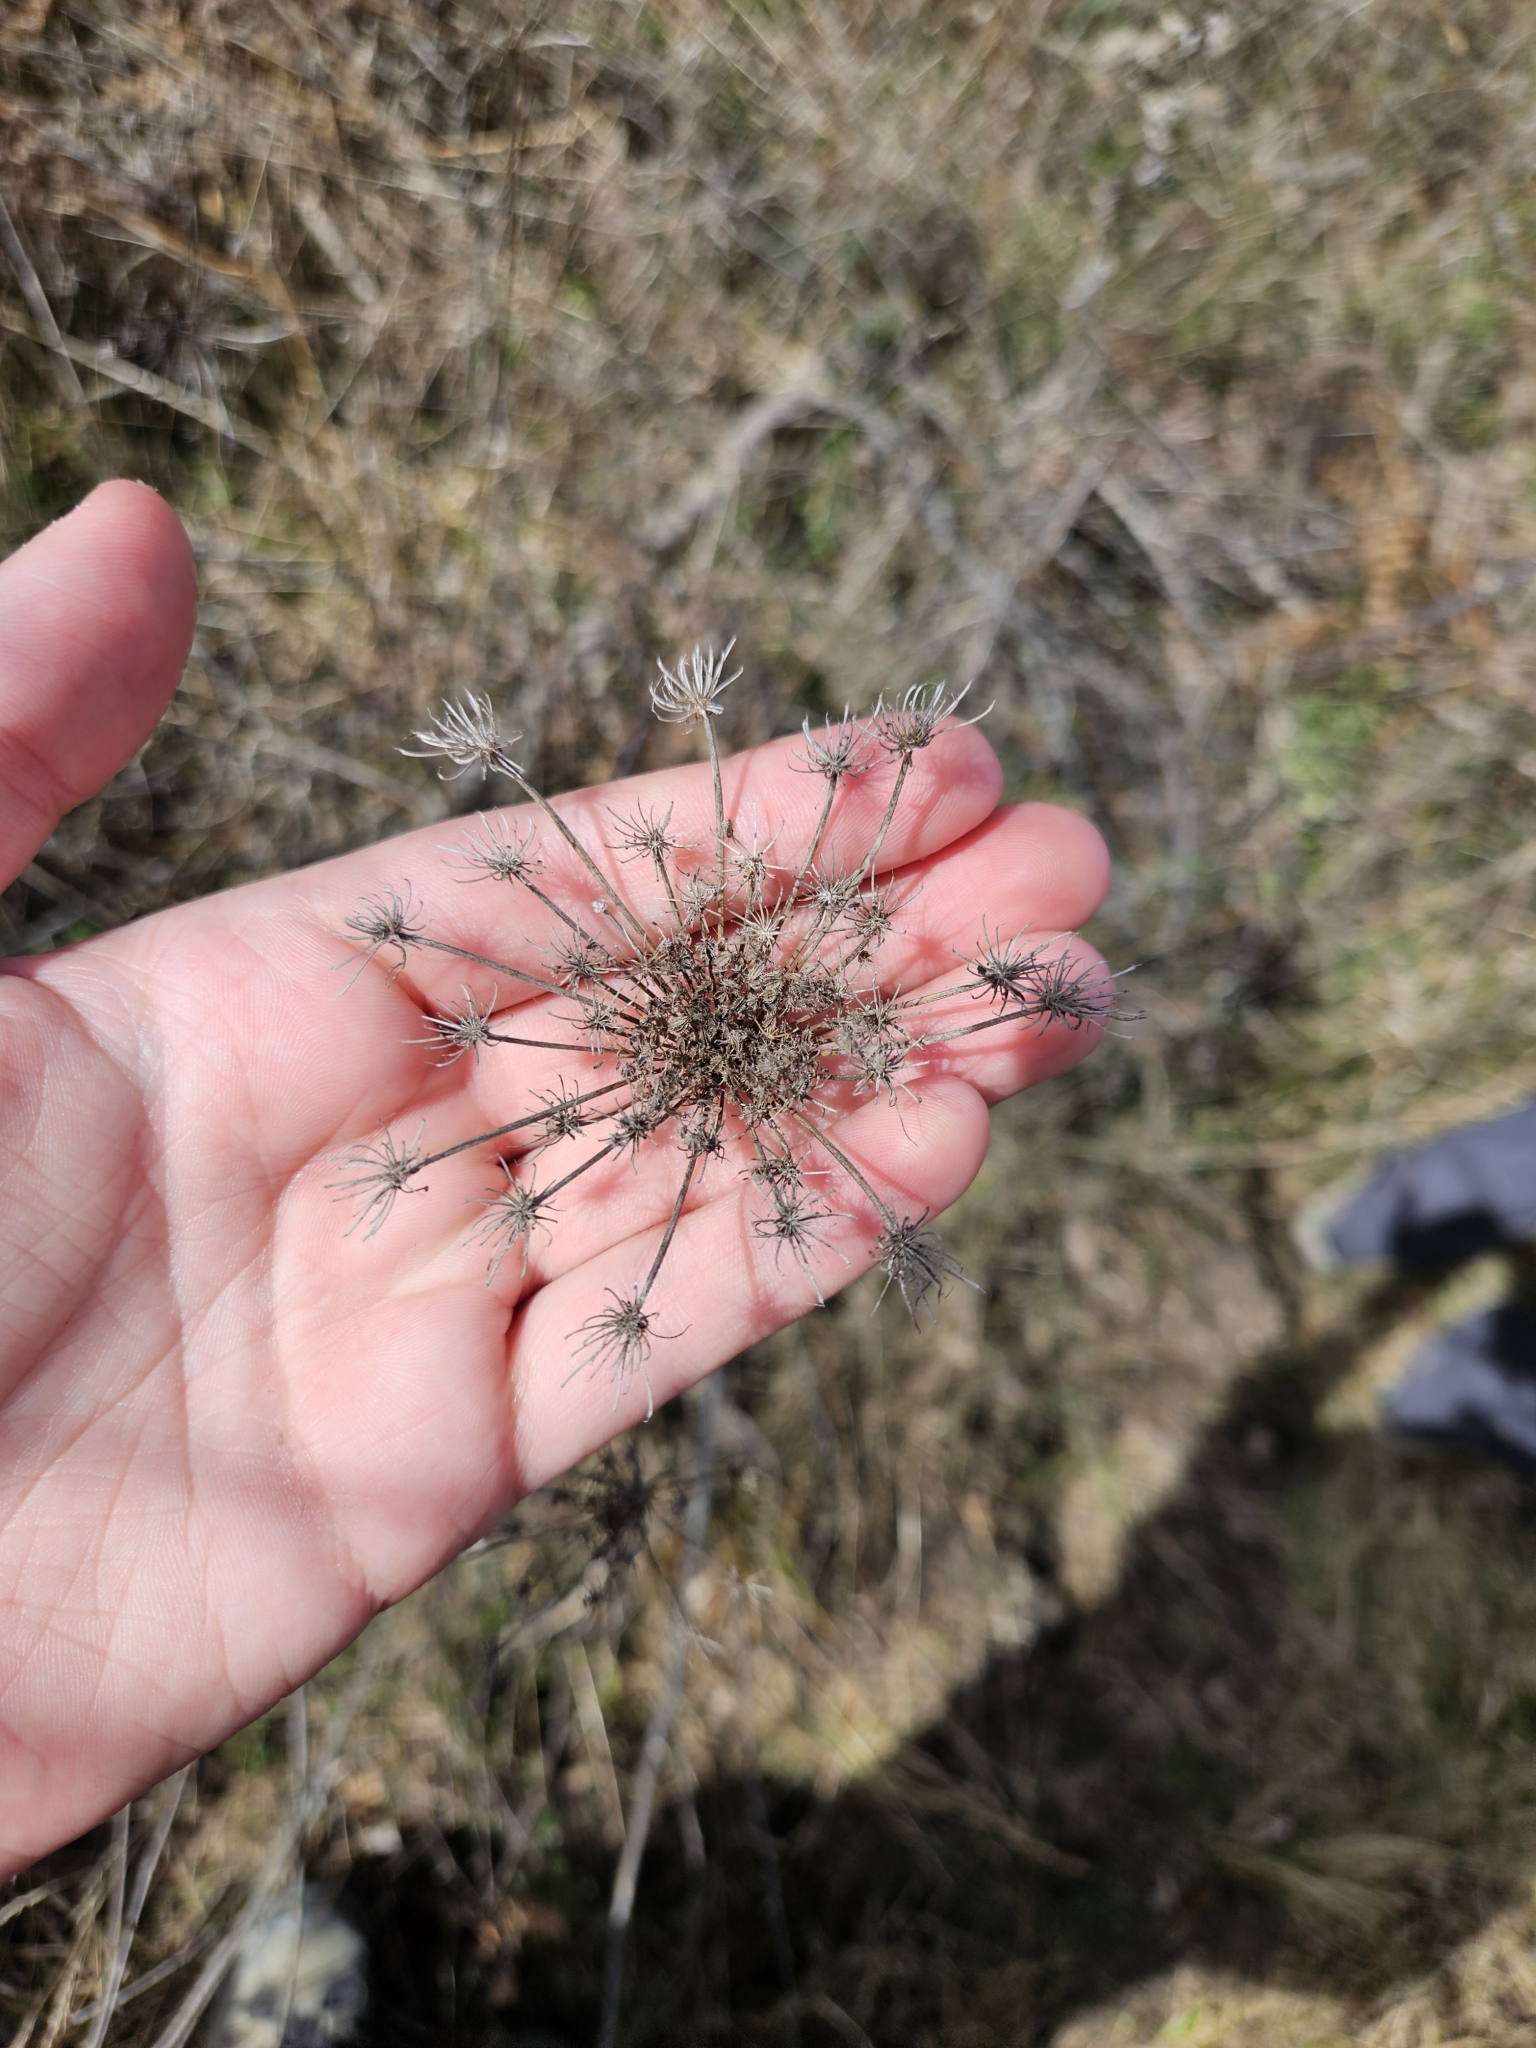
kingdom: Plantae
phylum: Tracheophyta
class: Magnoliopsida
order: Apiales
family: Apiaceae
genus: Daucus
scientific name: Daucus carota
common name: Wild carrot
